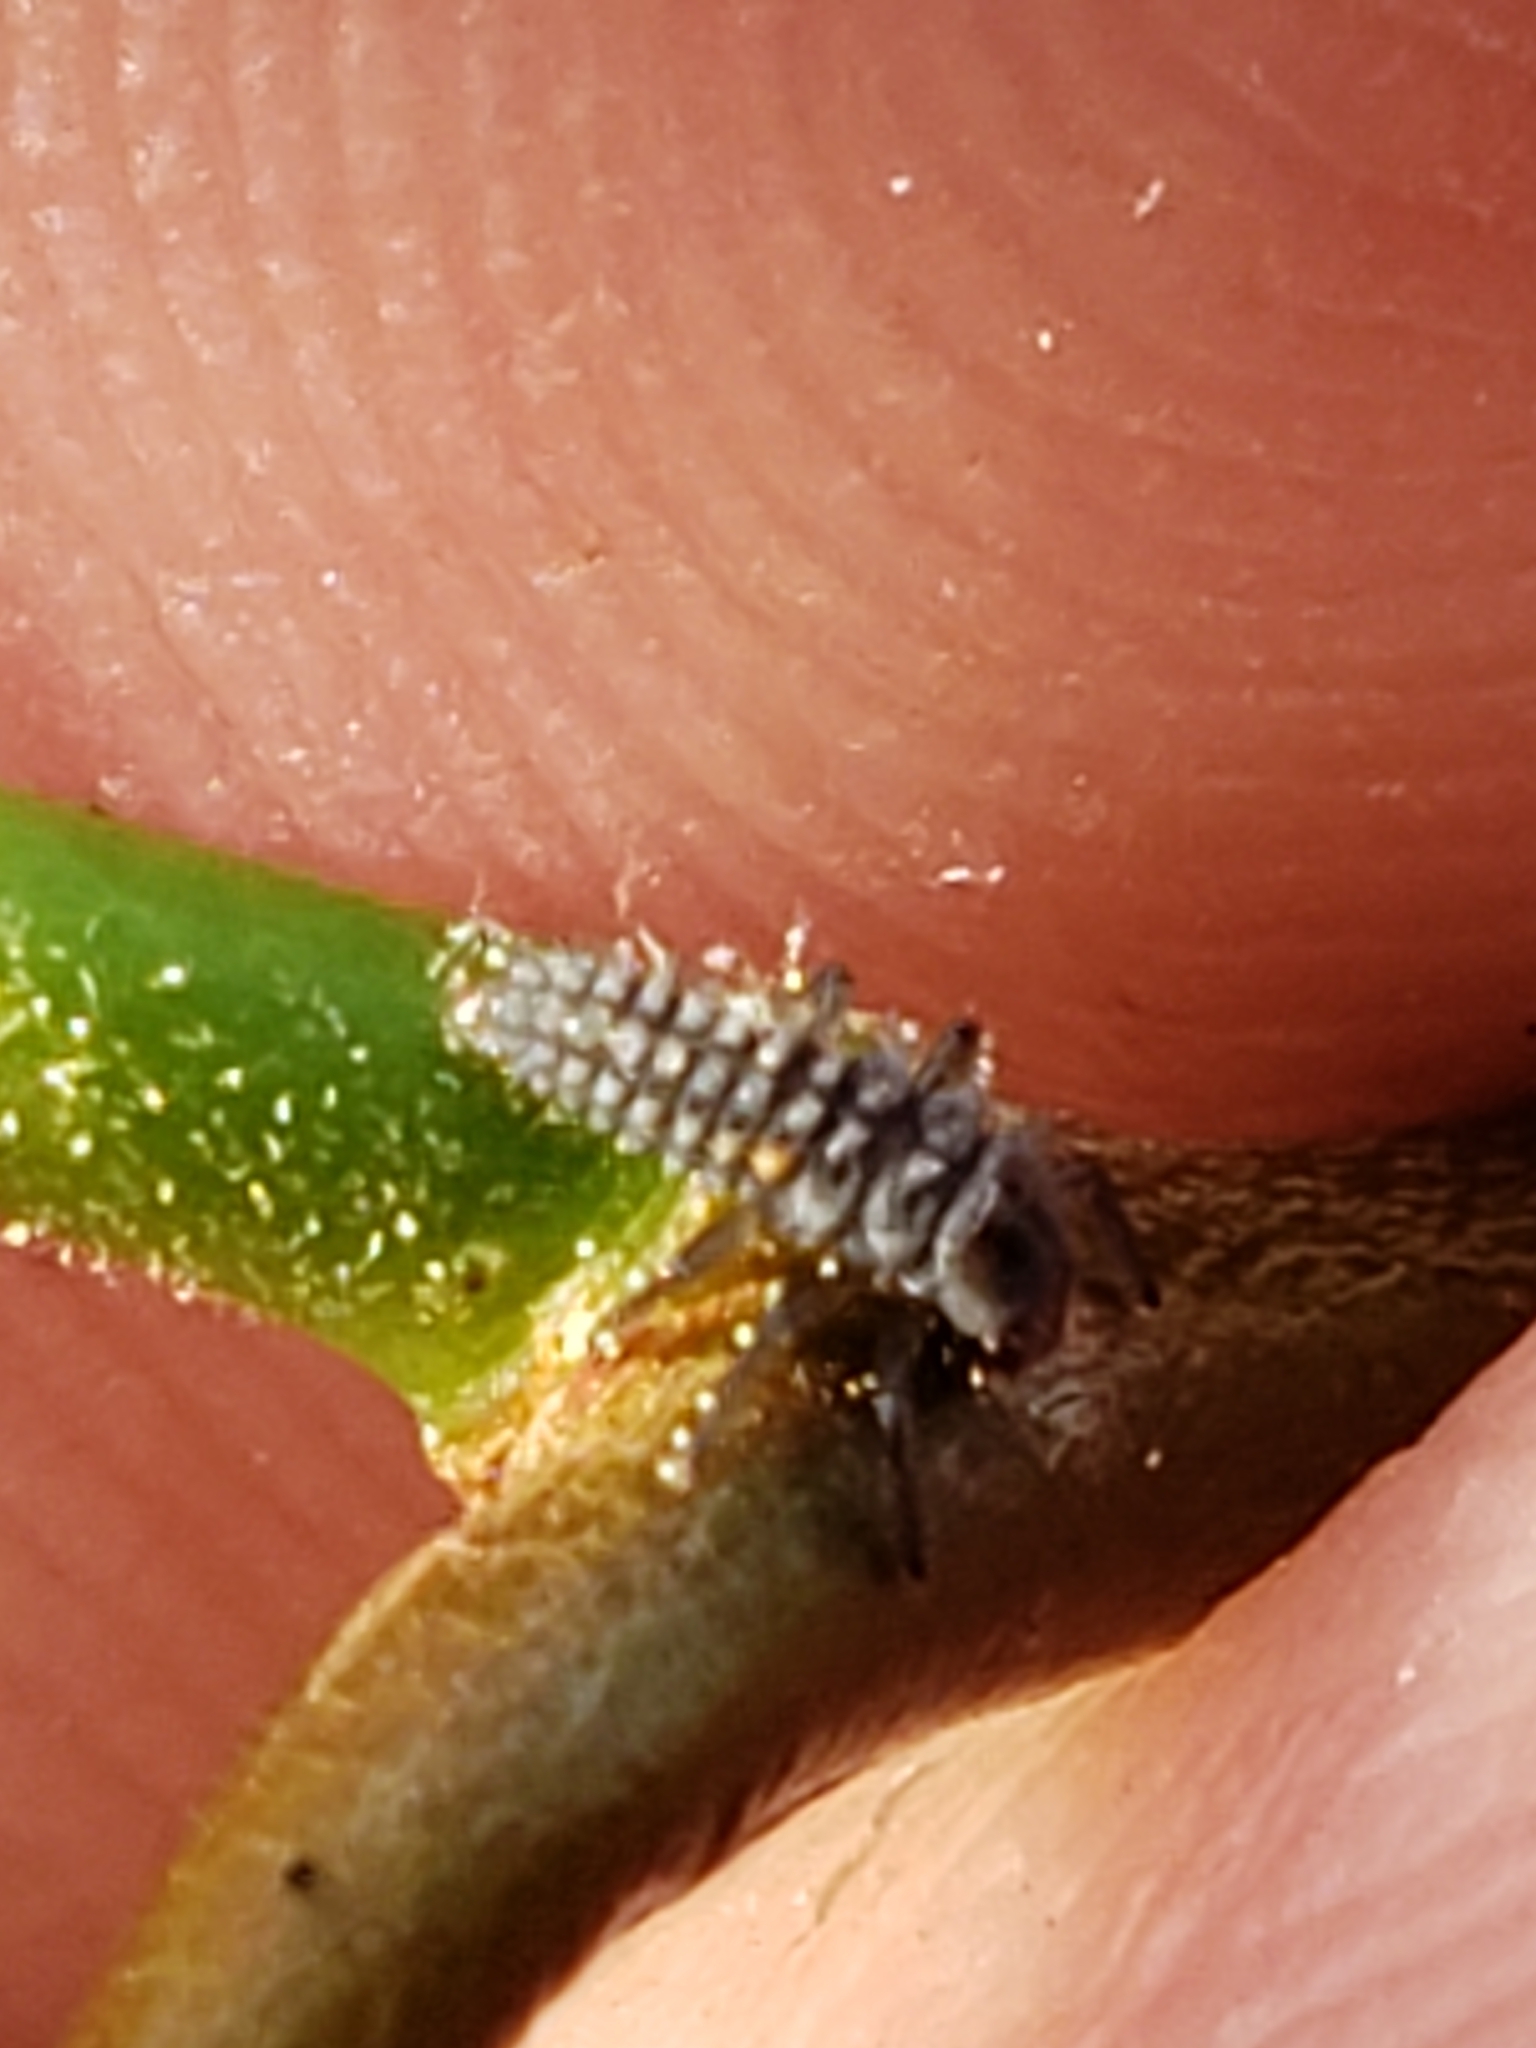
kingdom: Animalia
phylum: Arthropoda
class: Insecta
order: Coleoptera
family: Coccinellidae
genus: Harmonia
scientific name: Harmonia axyridis
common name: Harlequin ladybird
